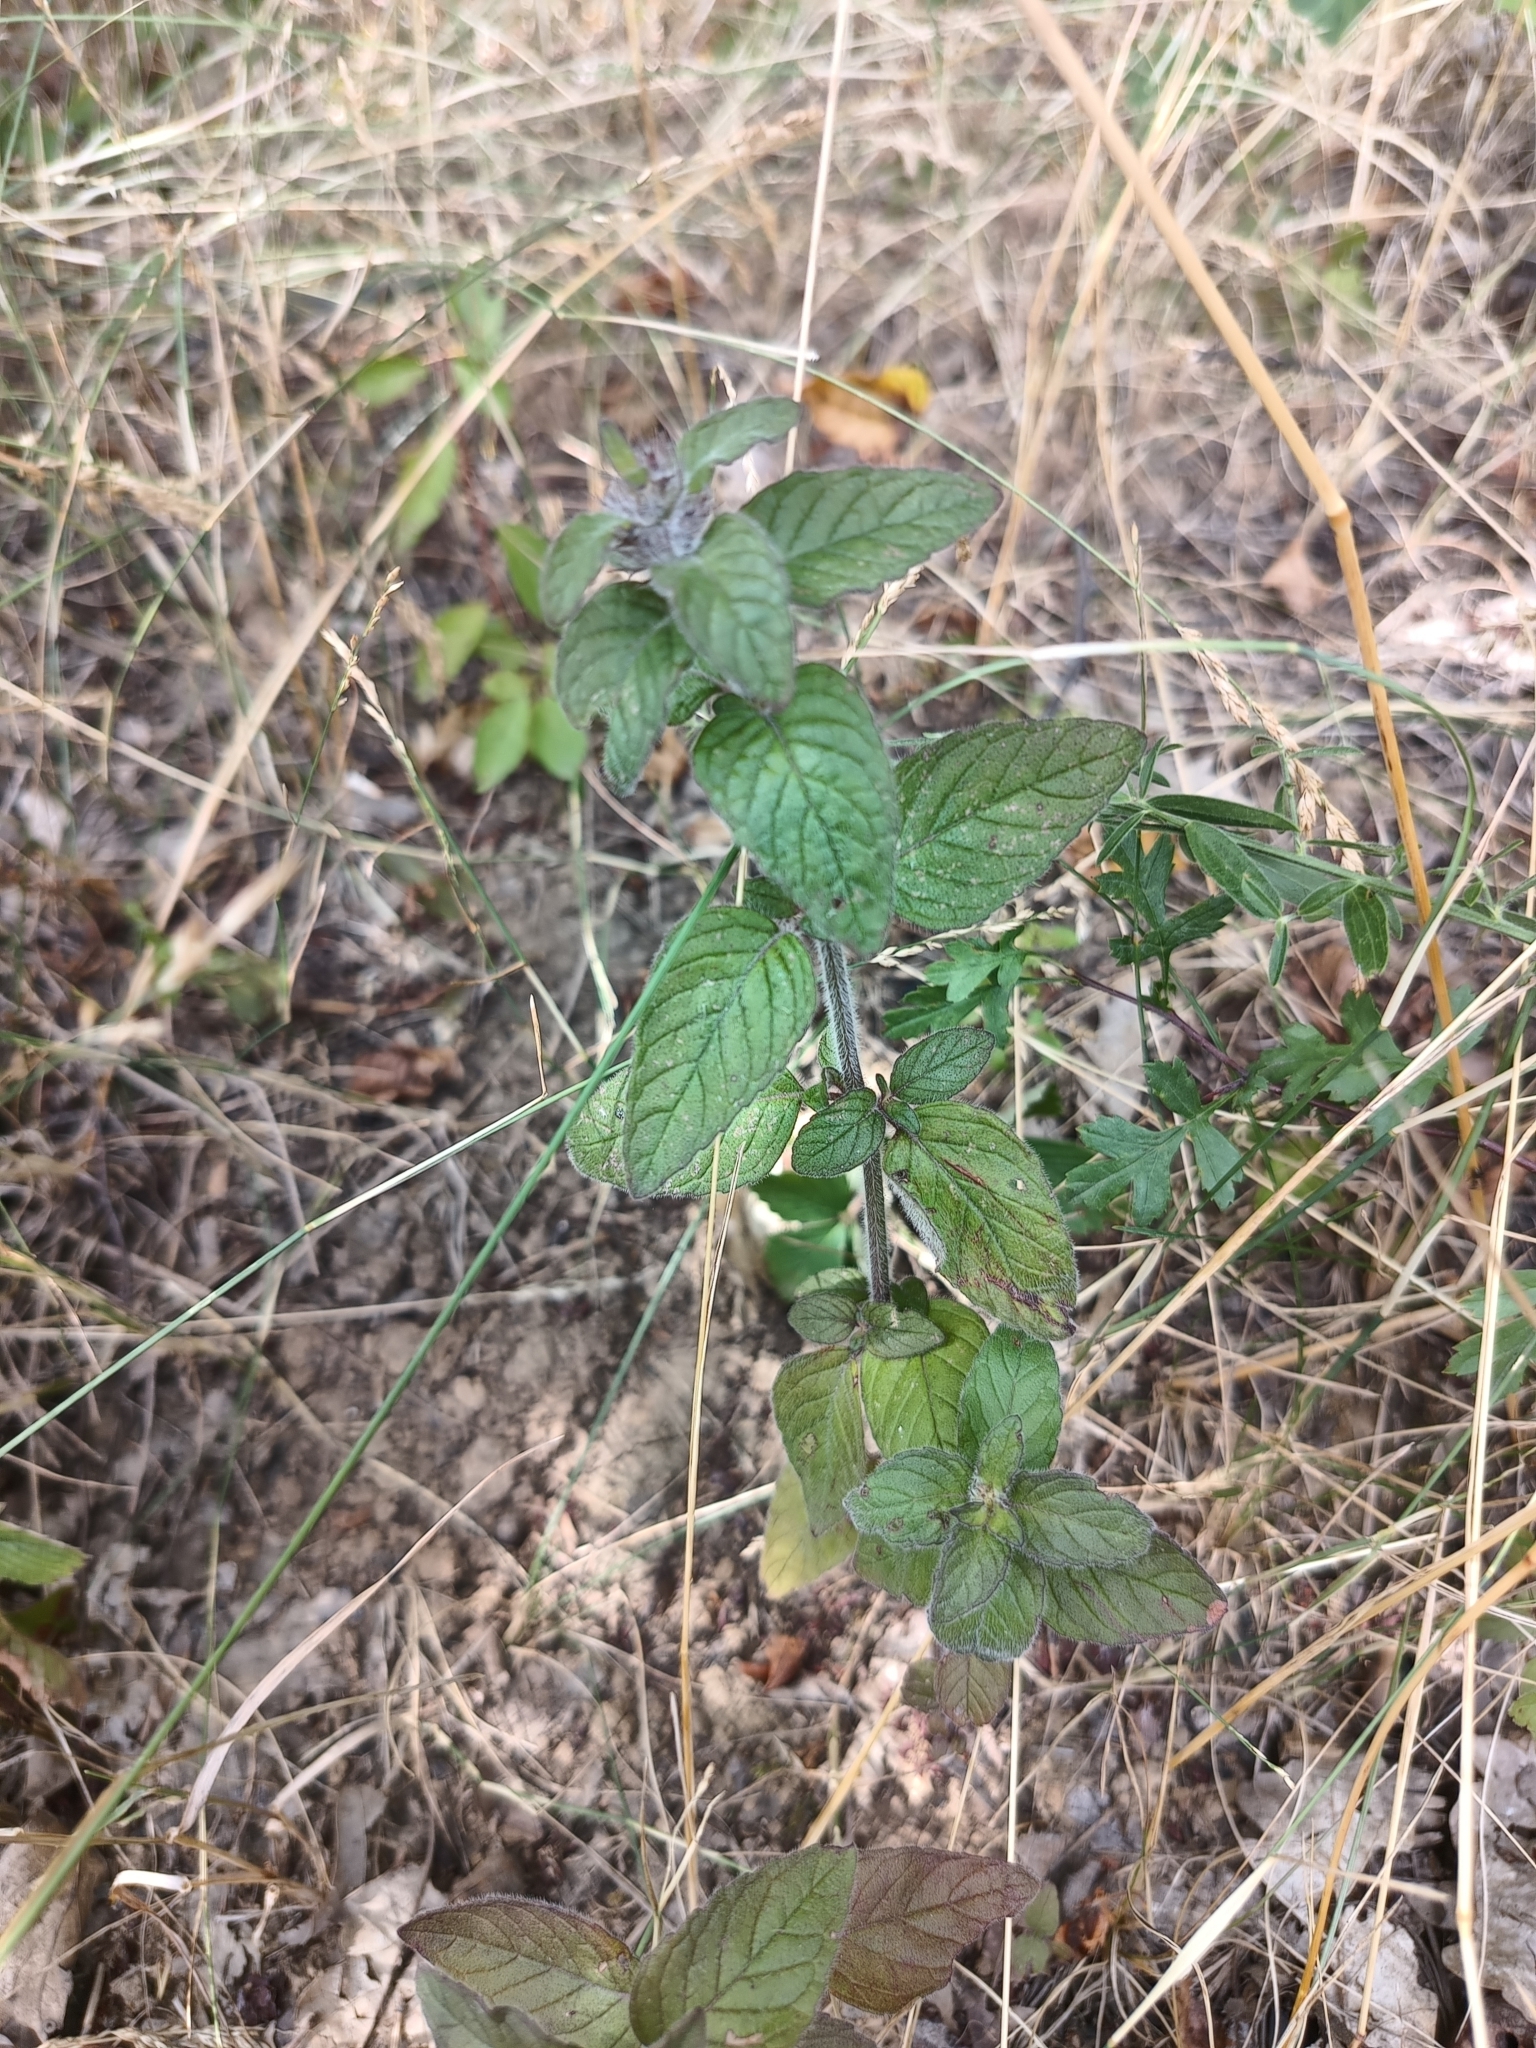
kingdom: Plantae
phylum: Tracheophyta
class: Magnoliopsida
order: Lamiales
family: Lamiaceae
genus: Clinopodium
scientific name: Clinopodium vulgare
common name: Wild basil
